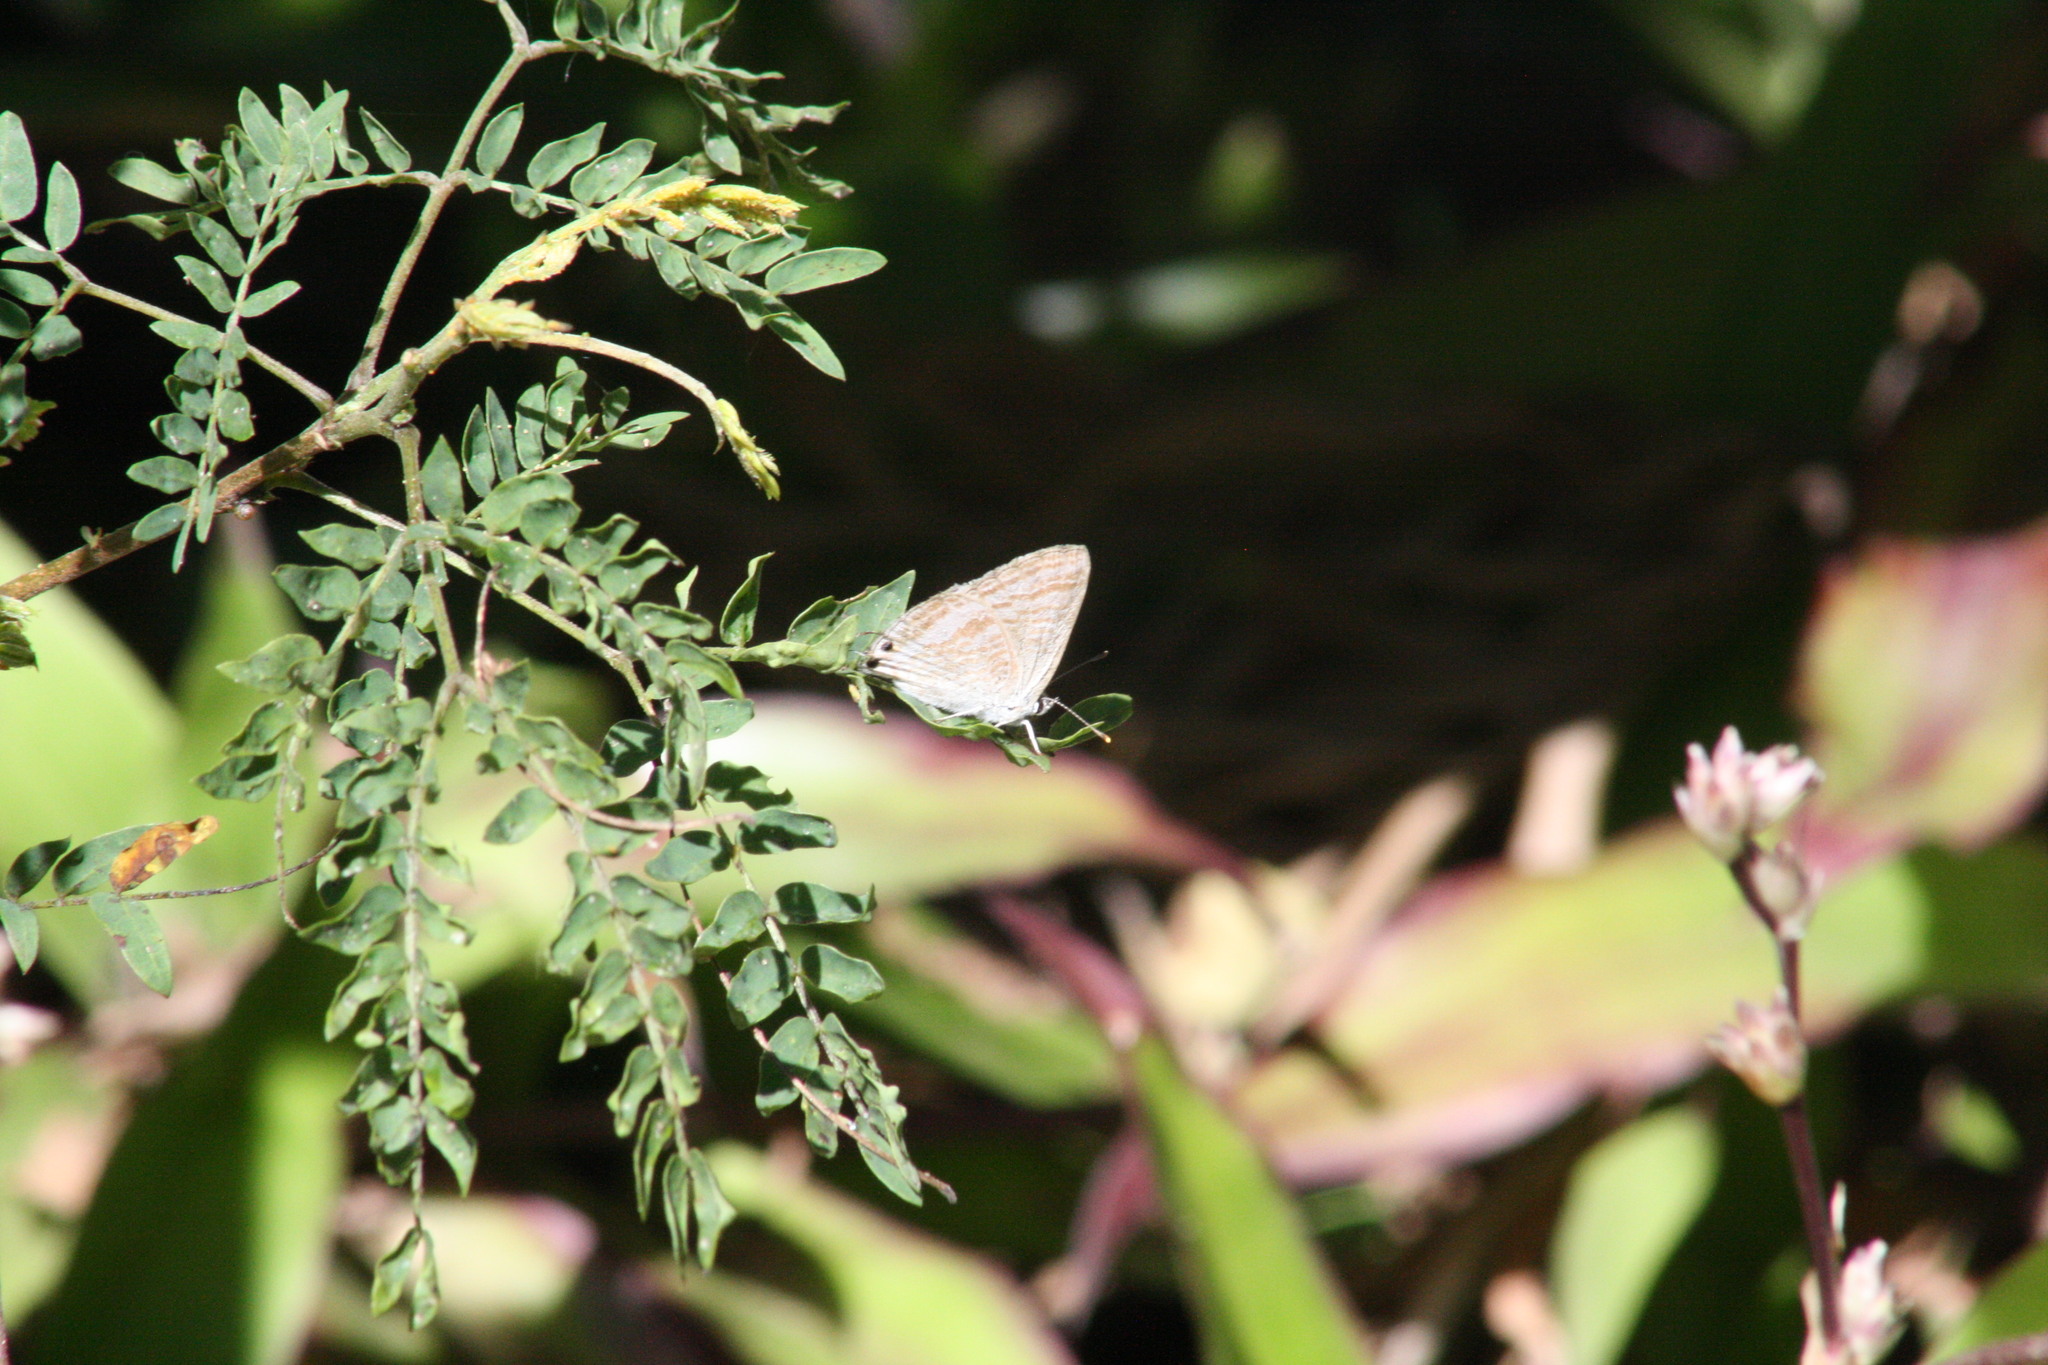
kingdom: Animalia
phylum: Arthropoda
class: Insecta
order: Lepidoptera
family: Lycaenidae
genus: Lampides
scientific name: Lampides boeticus
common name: Long-tailed blue
